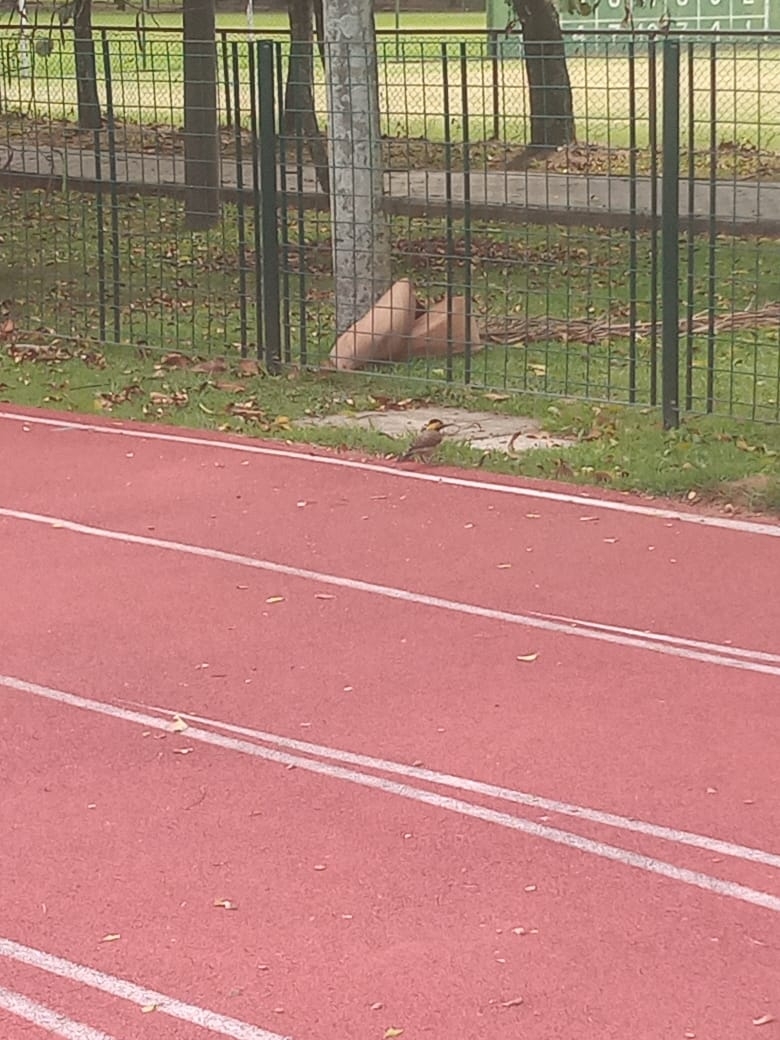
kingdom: Animalia
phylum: Chordata
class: Aves
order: Piciformes
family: Picidae
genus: Colaptes
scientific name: Colaptes campestris
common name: Campo flicker
